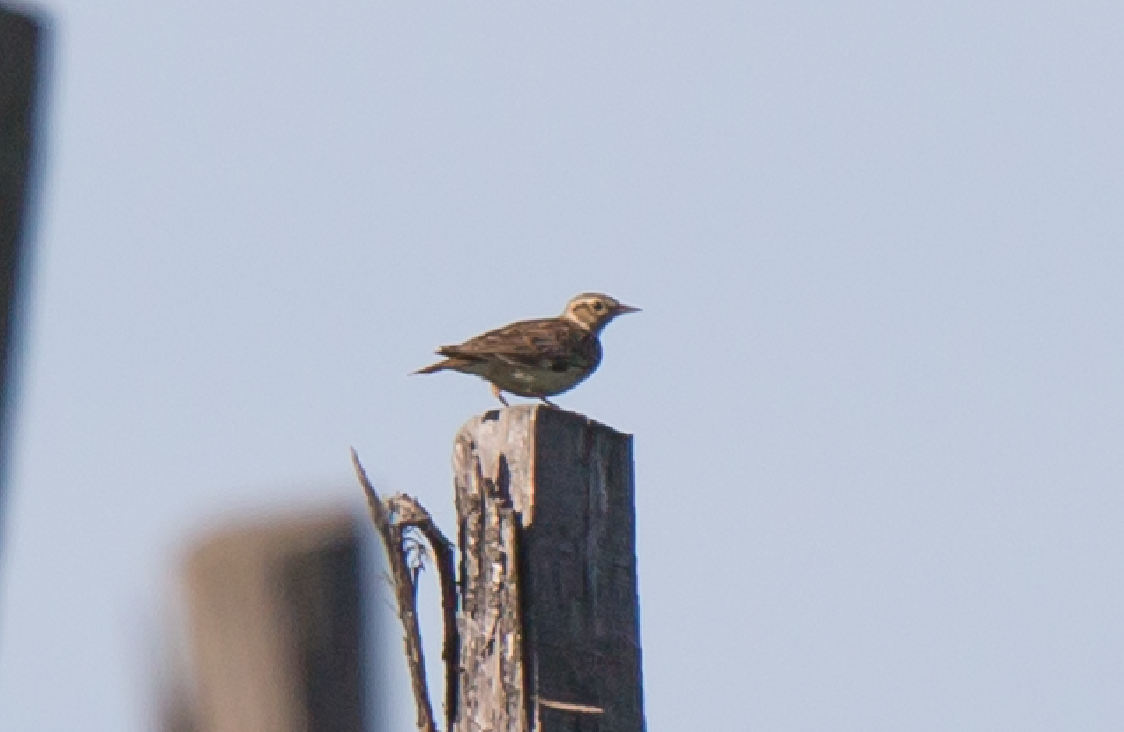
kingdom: Animalia
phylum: Chordata
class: Aves
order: Passeriformes
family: Alaudidae
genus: Lullula
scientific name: Lullula arborea
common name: Woodlark
